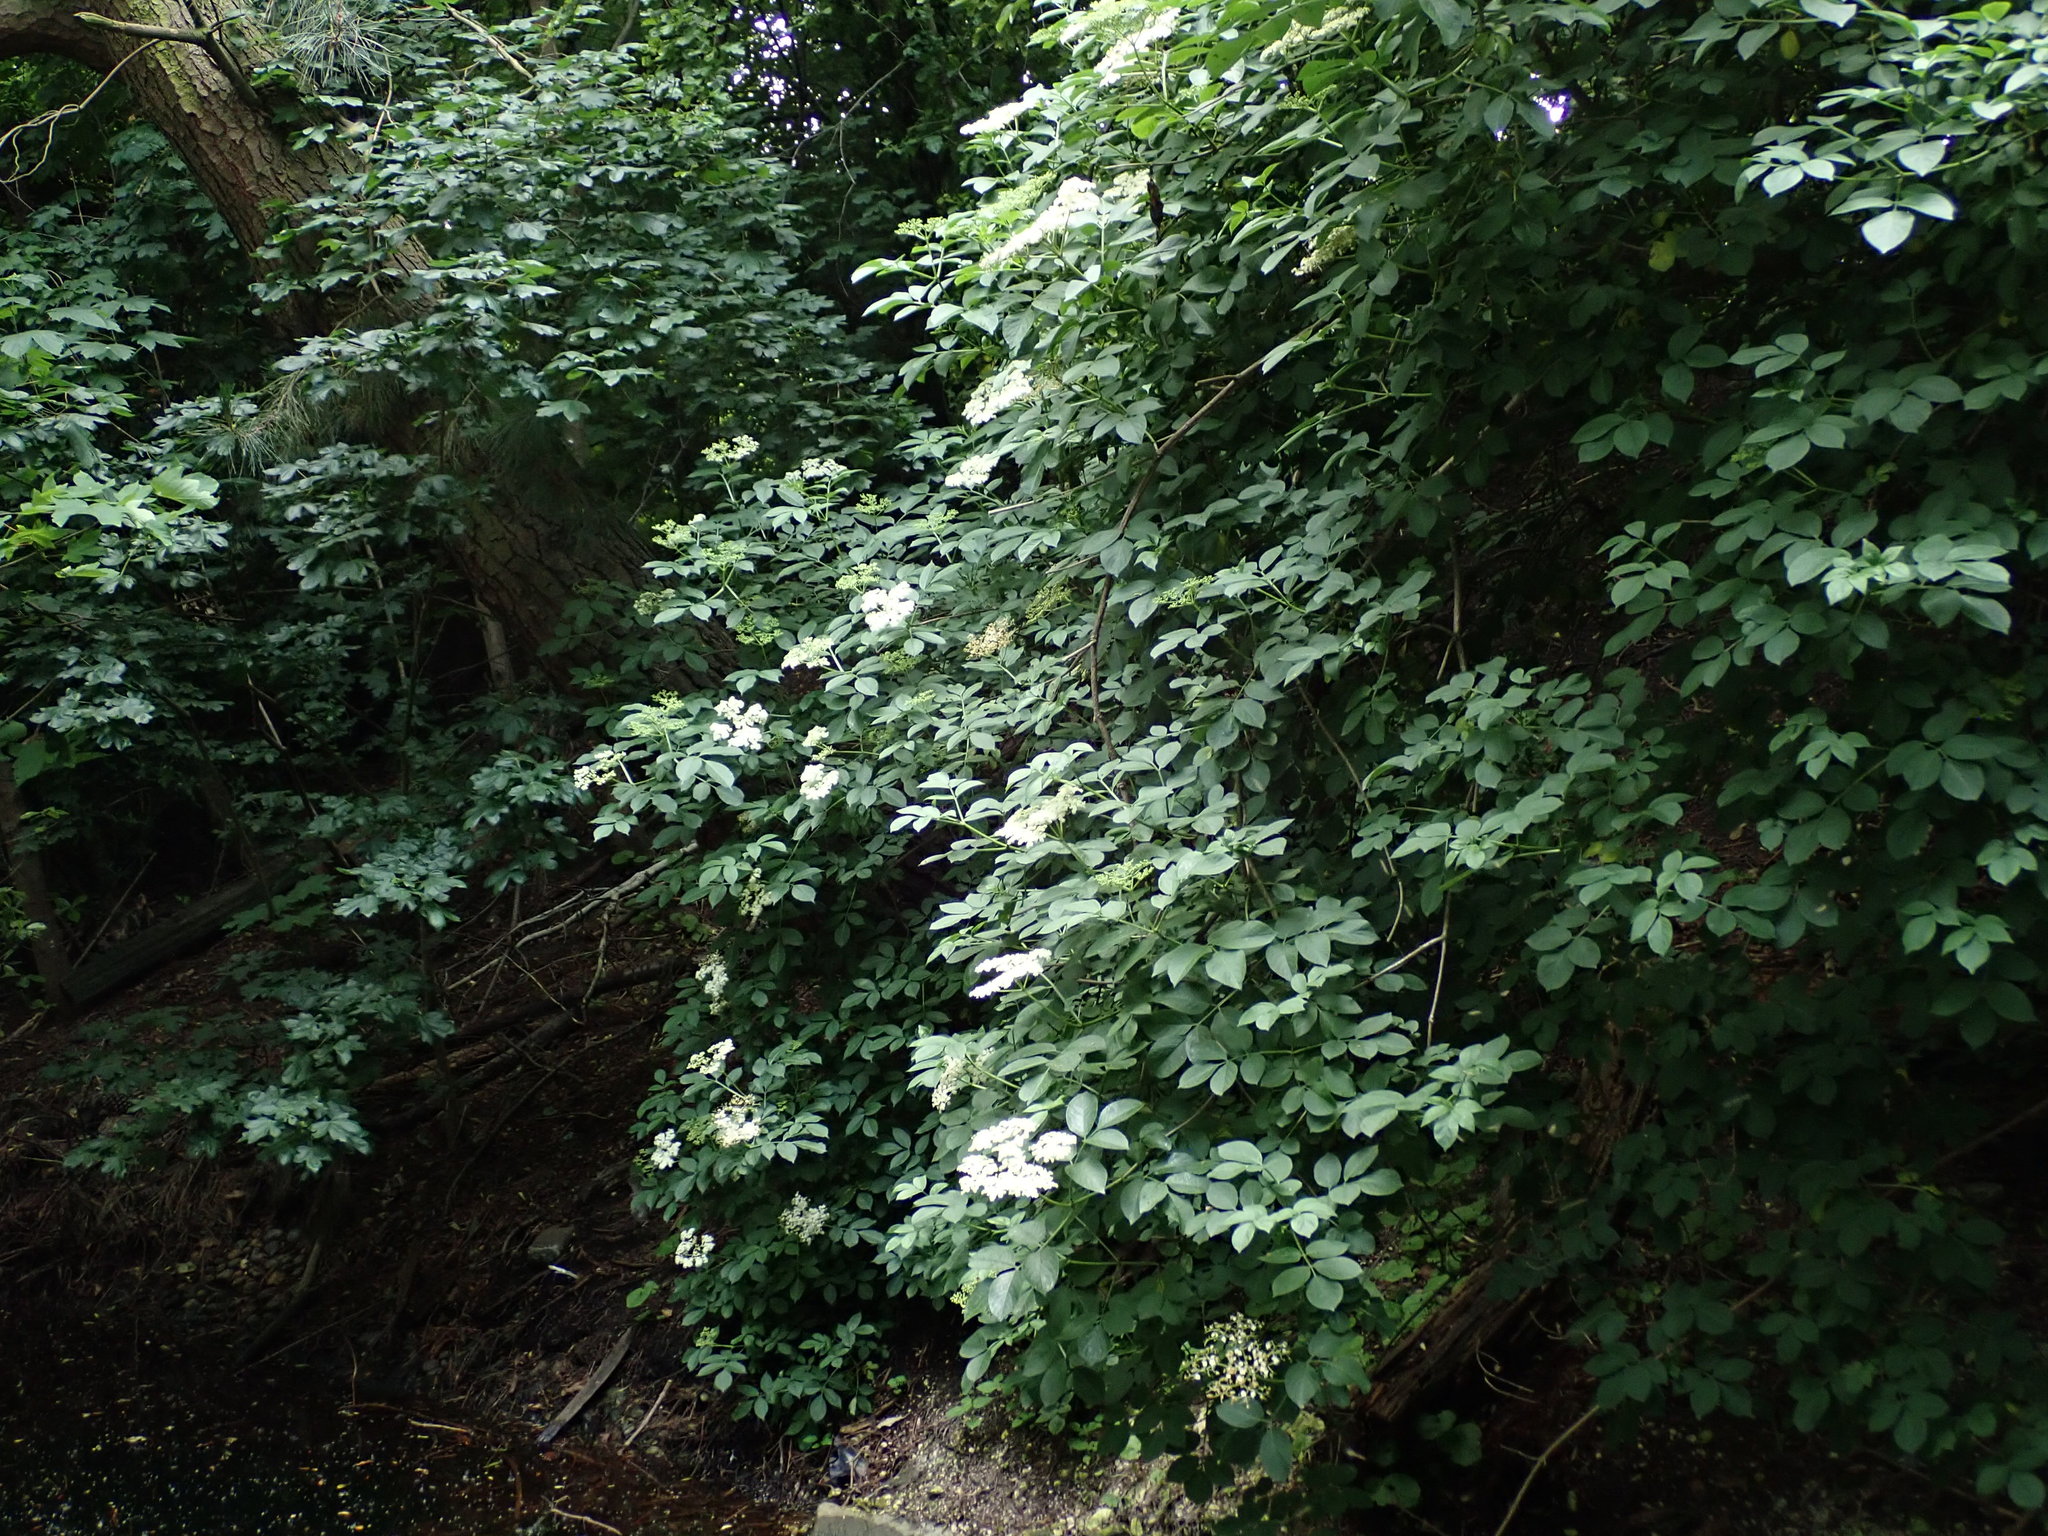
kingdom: Plantae
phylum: Tracheophyta
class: Magnoliopsida
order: Dipsacales
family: Viburnaceae
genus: Sambucus
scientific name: Sambucus nigra
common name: Elder
